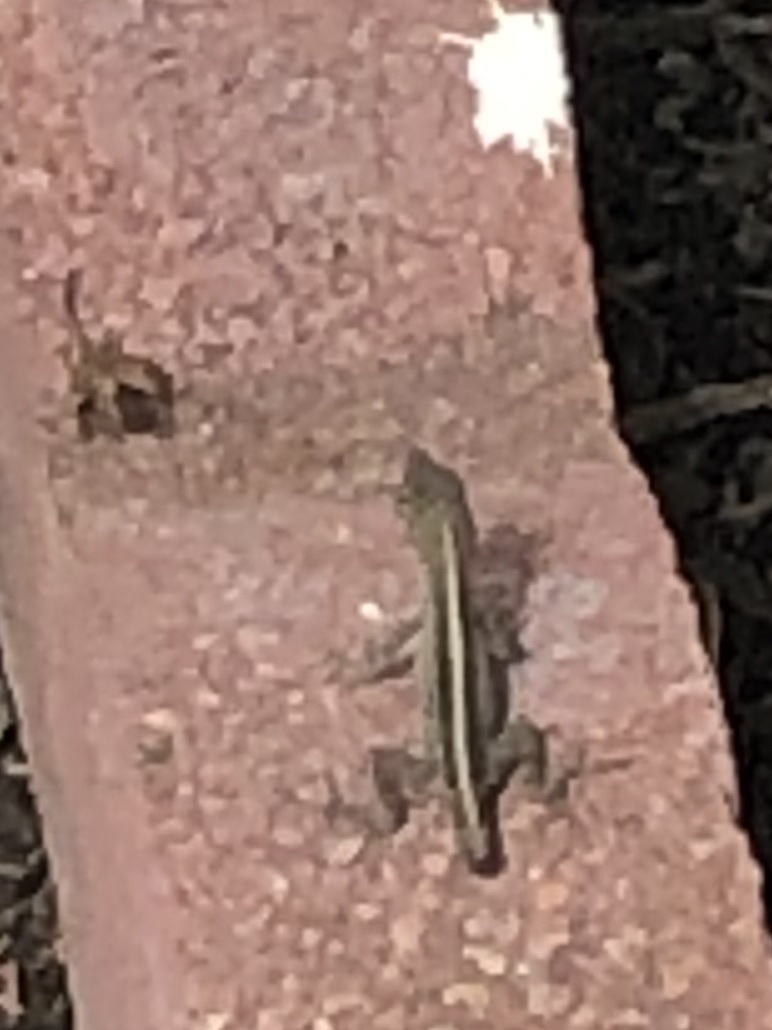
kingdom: Animalia
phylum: Chordata
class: Squamata
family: Dactyloidae
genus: Anolis
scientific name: Anolis sagrei
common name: Brown anole
